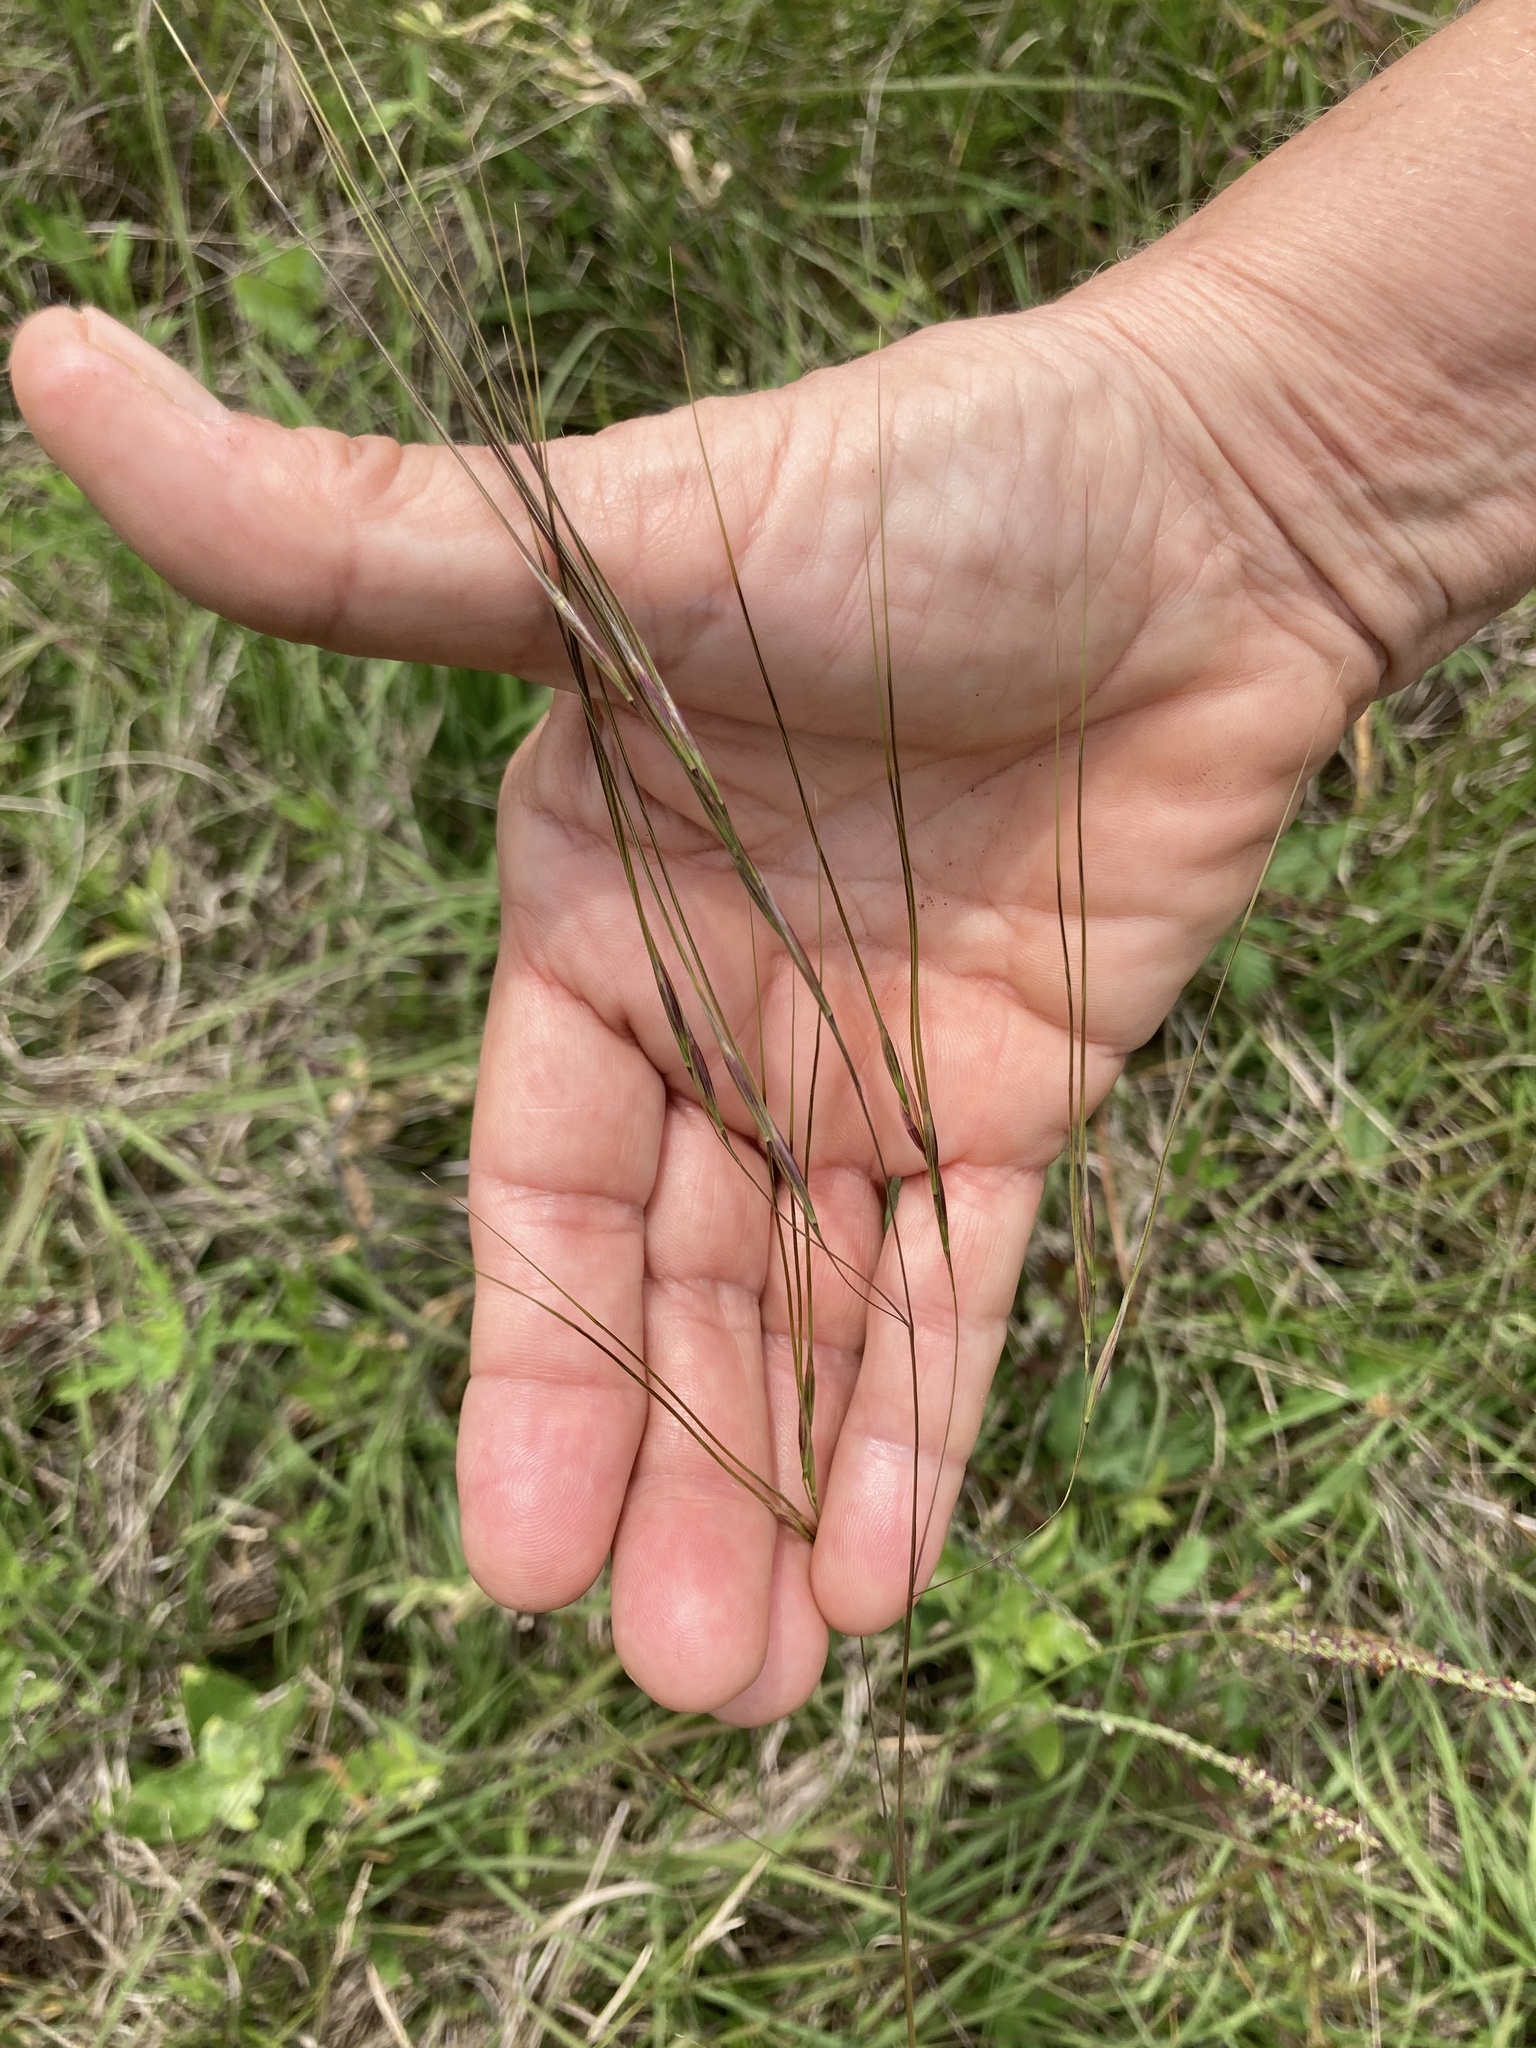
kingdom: Plantae
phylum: Tracheophyta
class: Liliopsida
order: Poales
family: Poaceae
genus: Piptochaetium
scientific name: Piptochaetium avenaceum
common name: Black bunchgrass
